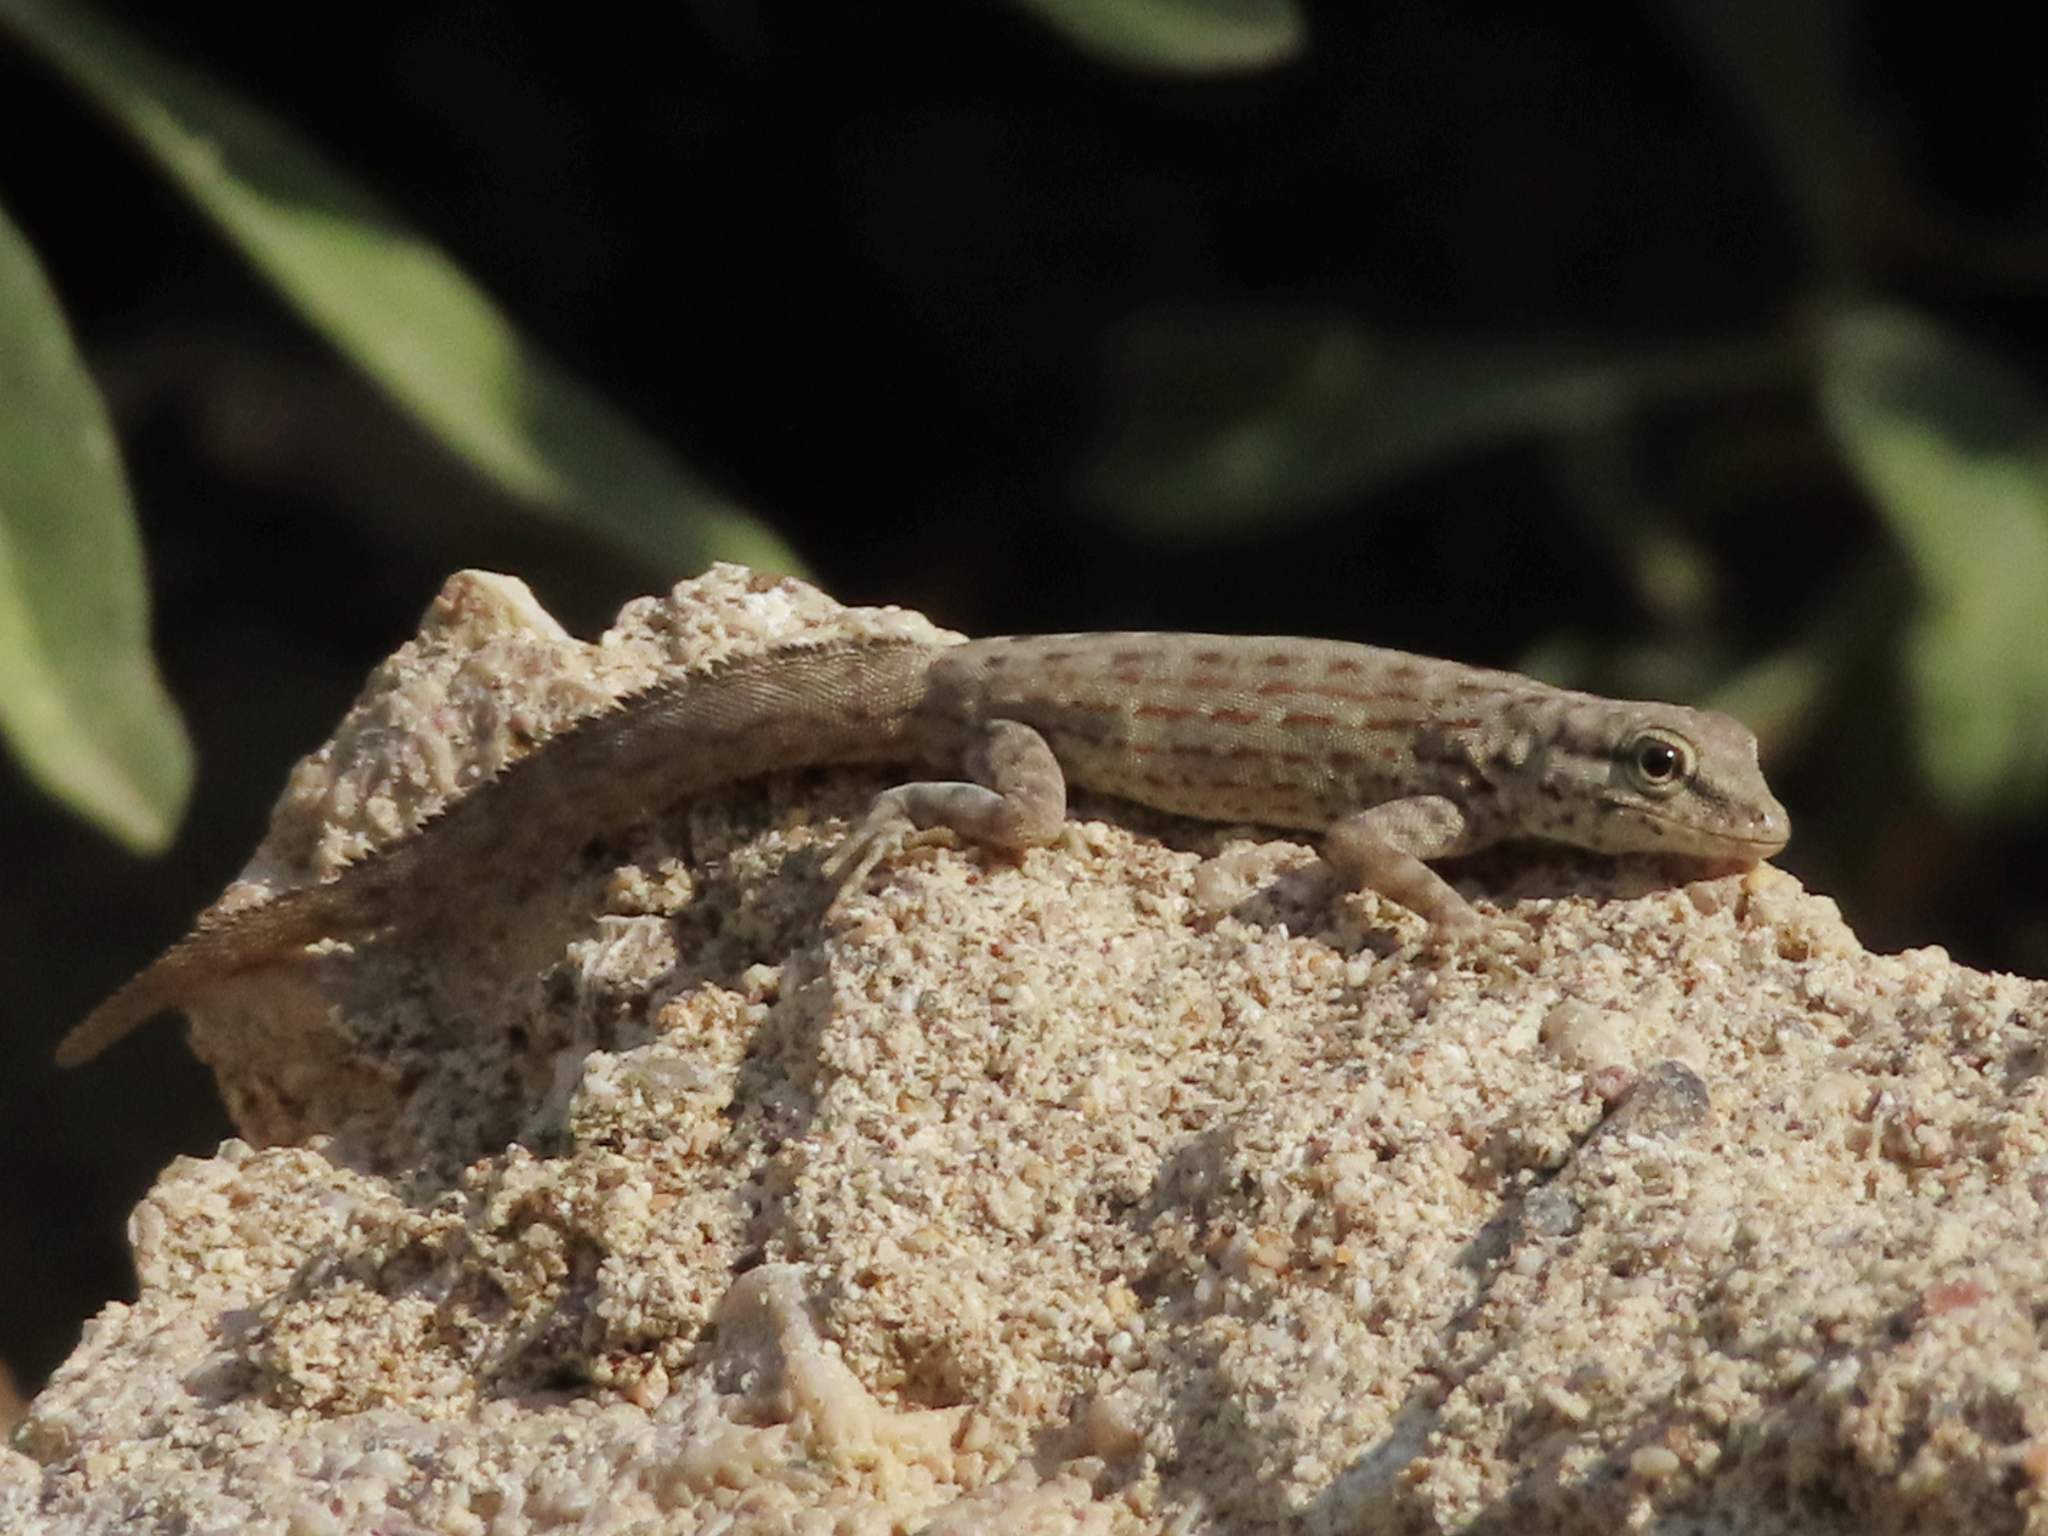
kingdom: Animalia
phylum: Chordata
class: Squamata
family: Sphaerodactylidae
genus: Pristurus
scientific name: Pristurus rupestris
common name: Blanford’s semaphore gecko
